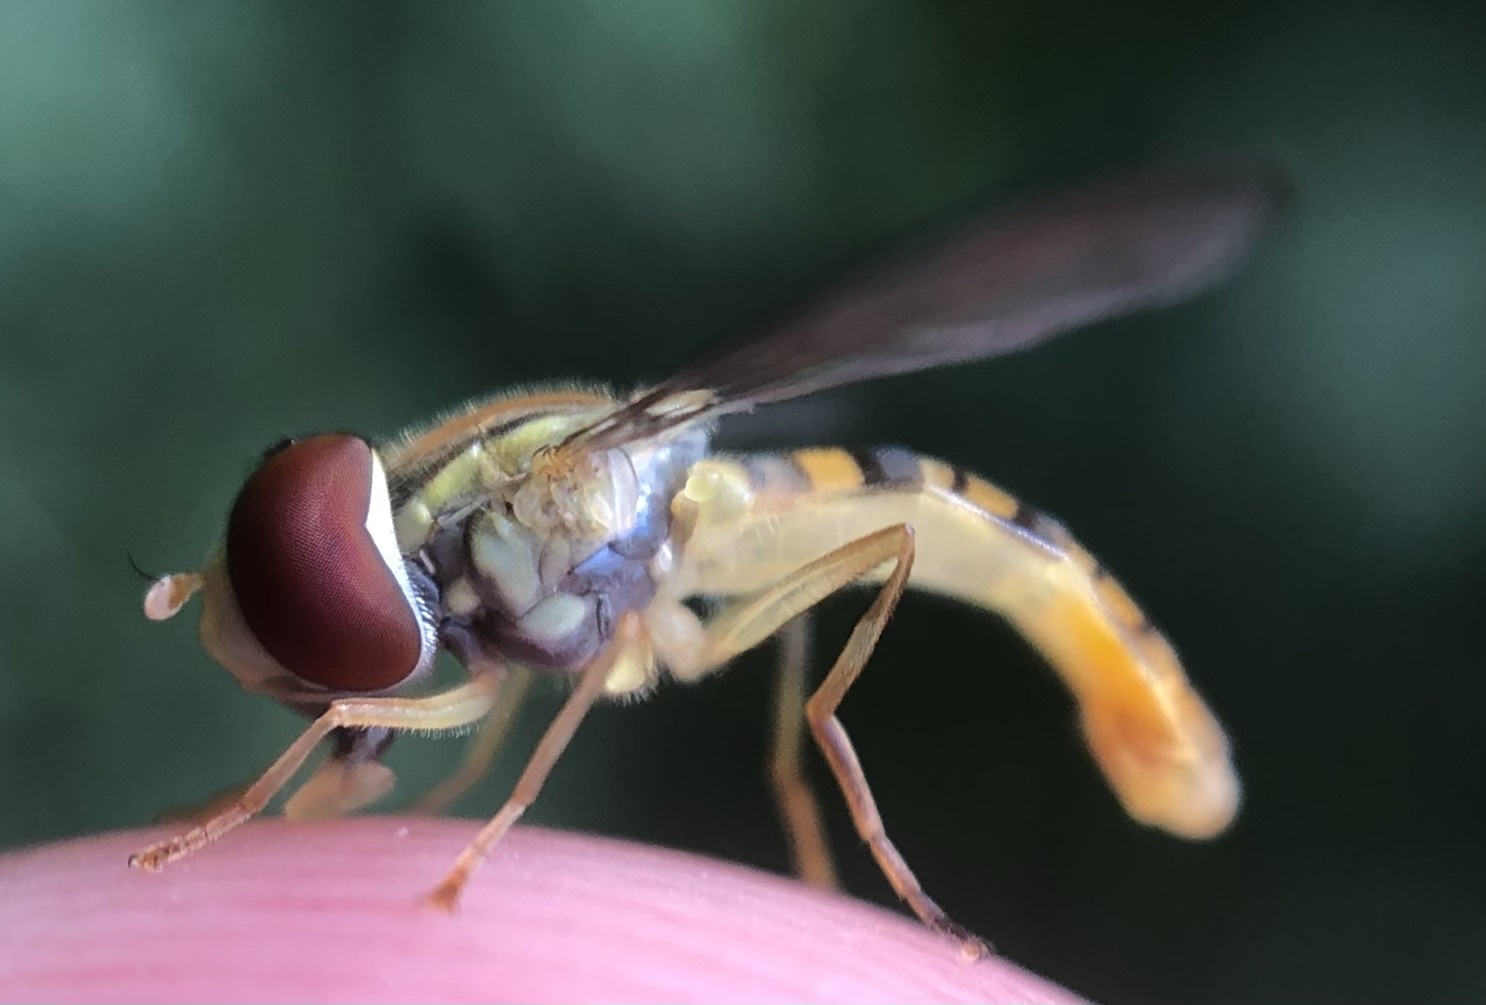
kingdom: Animalia
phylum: Arthropoda
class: Insecta
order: Diptera
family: Syrphidae
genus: Toxomerus
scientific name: Toxomerus politus
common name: Maize calligrapher
